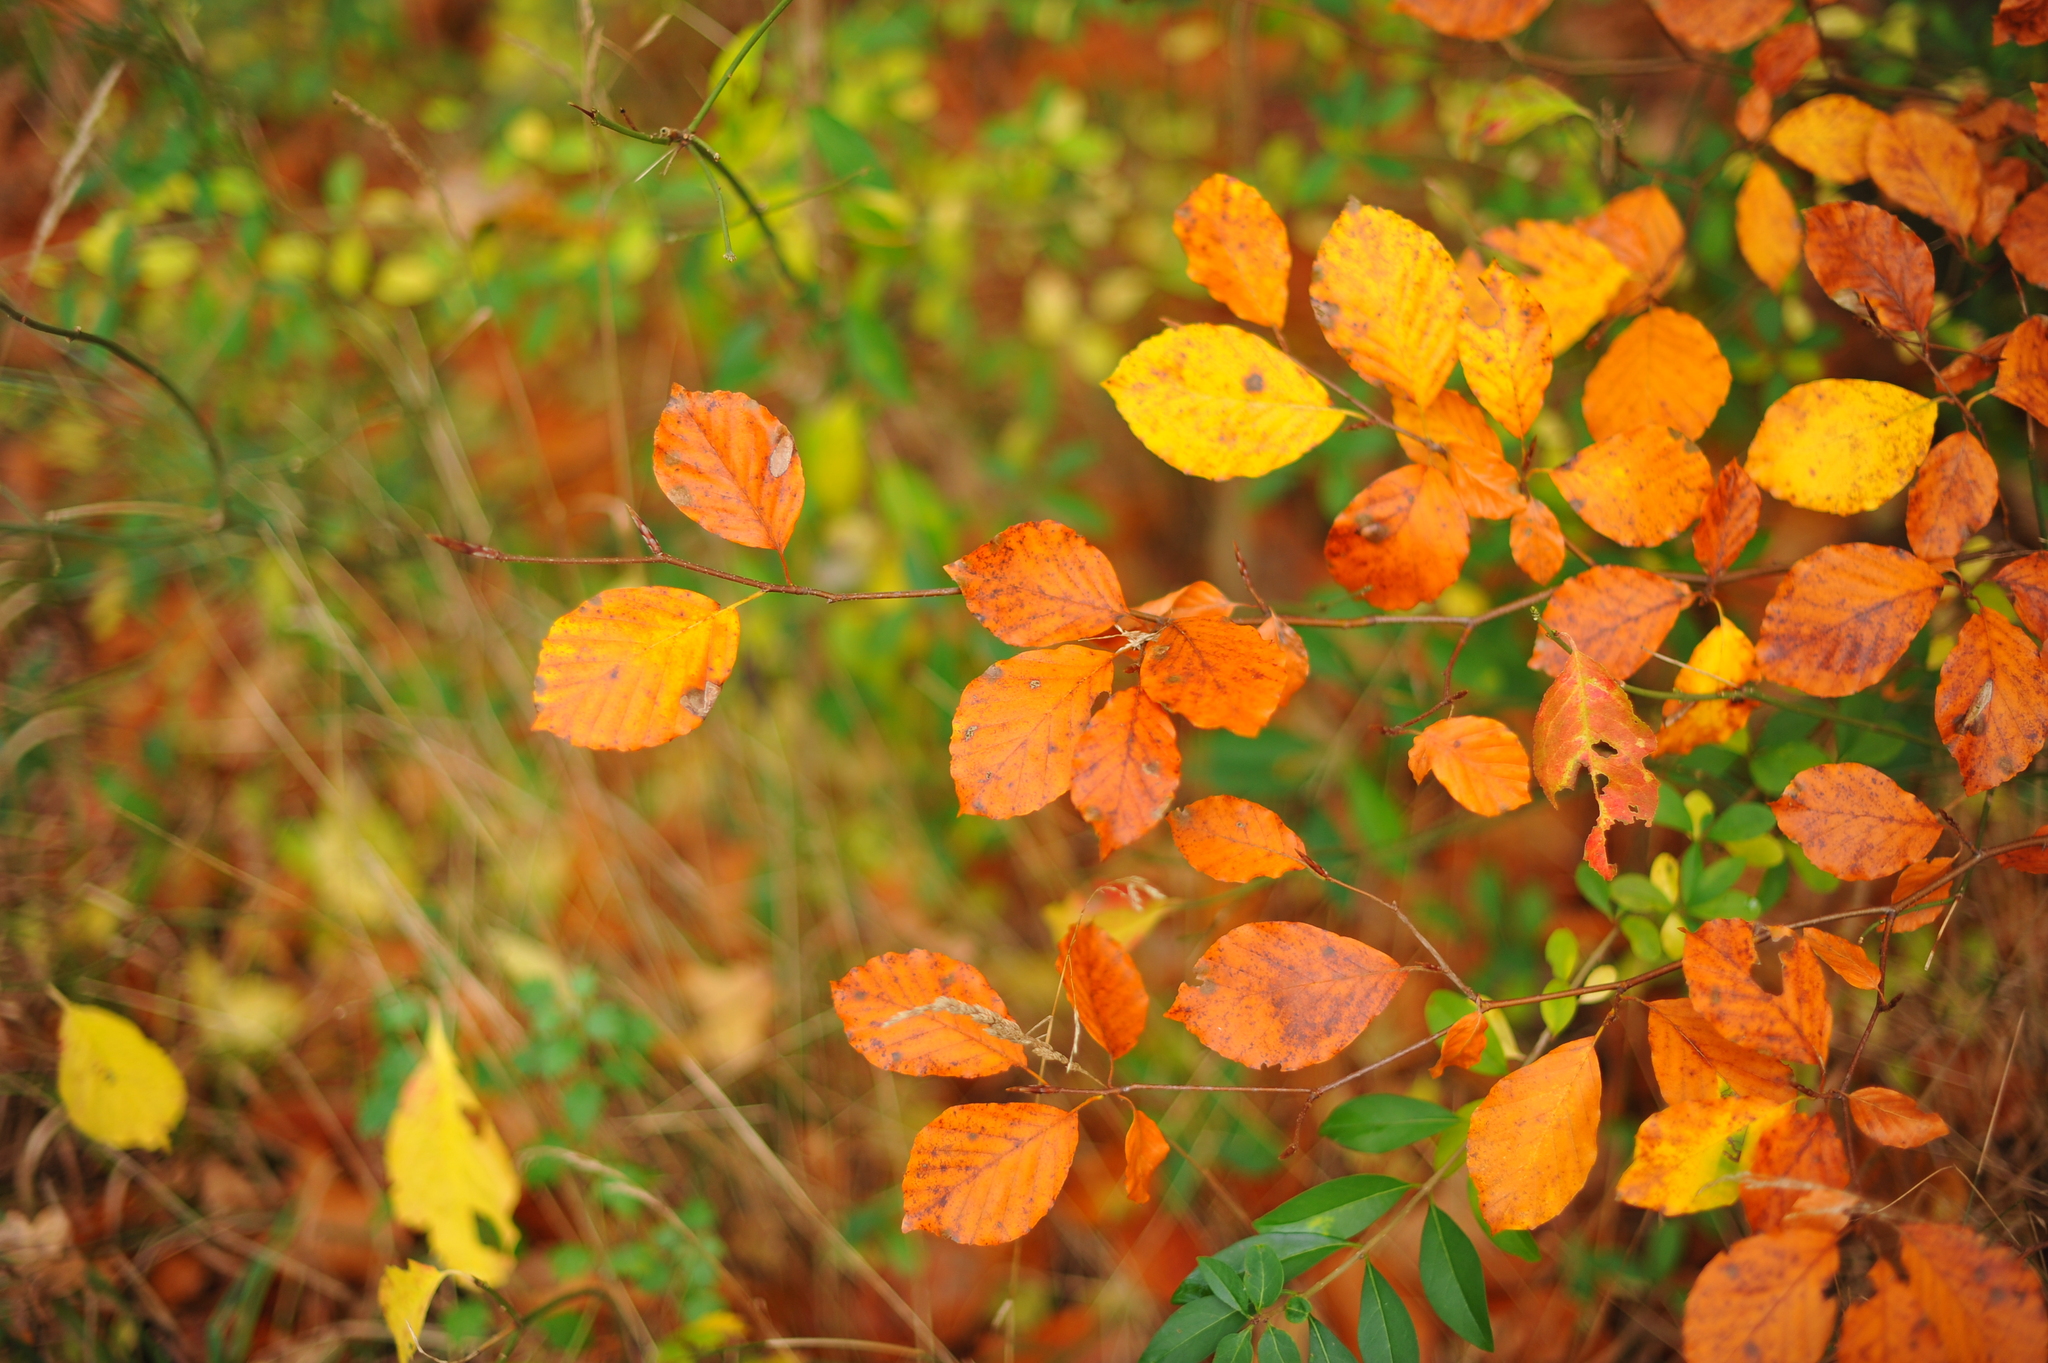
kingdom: Plantae
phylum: Tracheophyta
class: Magnoliopsida
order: Fagales
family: Fagaceae
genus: Fagus
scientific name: Fagus sylvatica
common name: Beech
